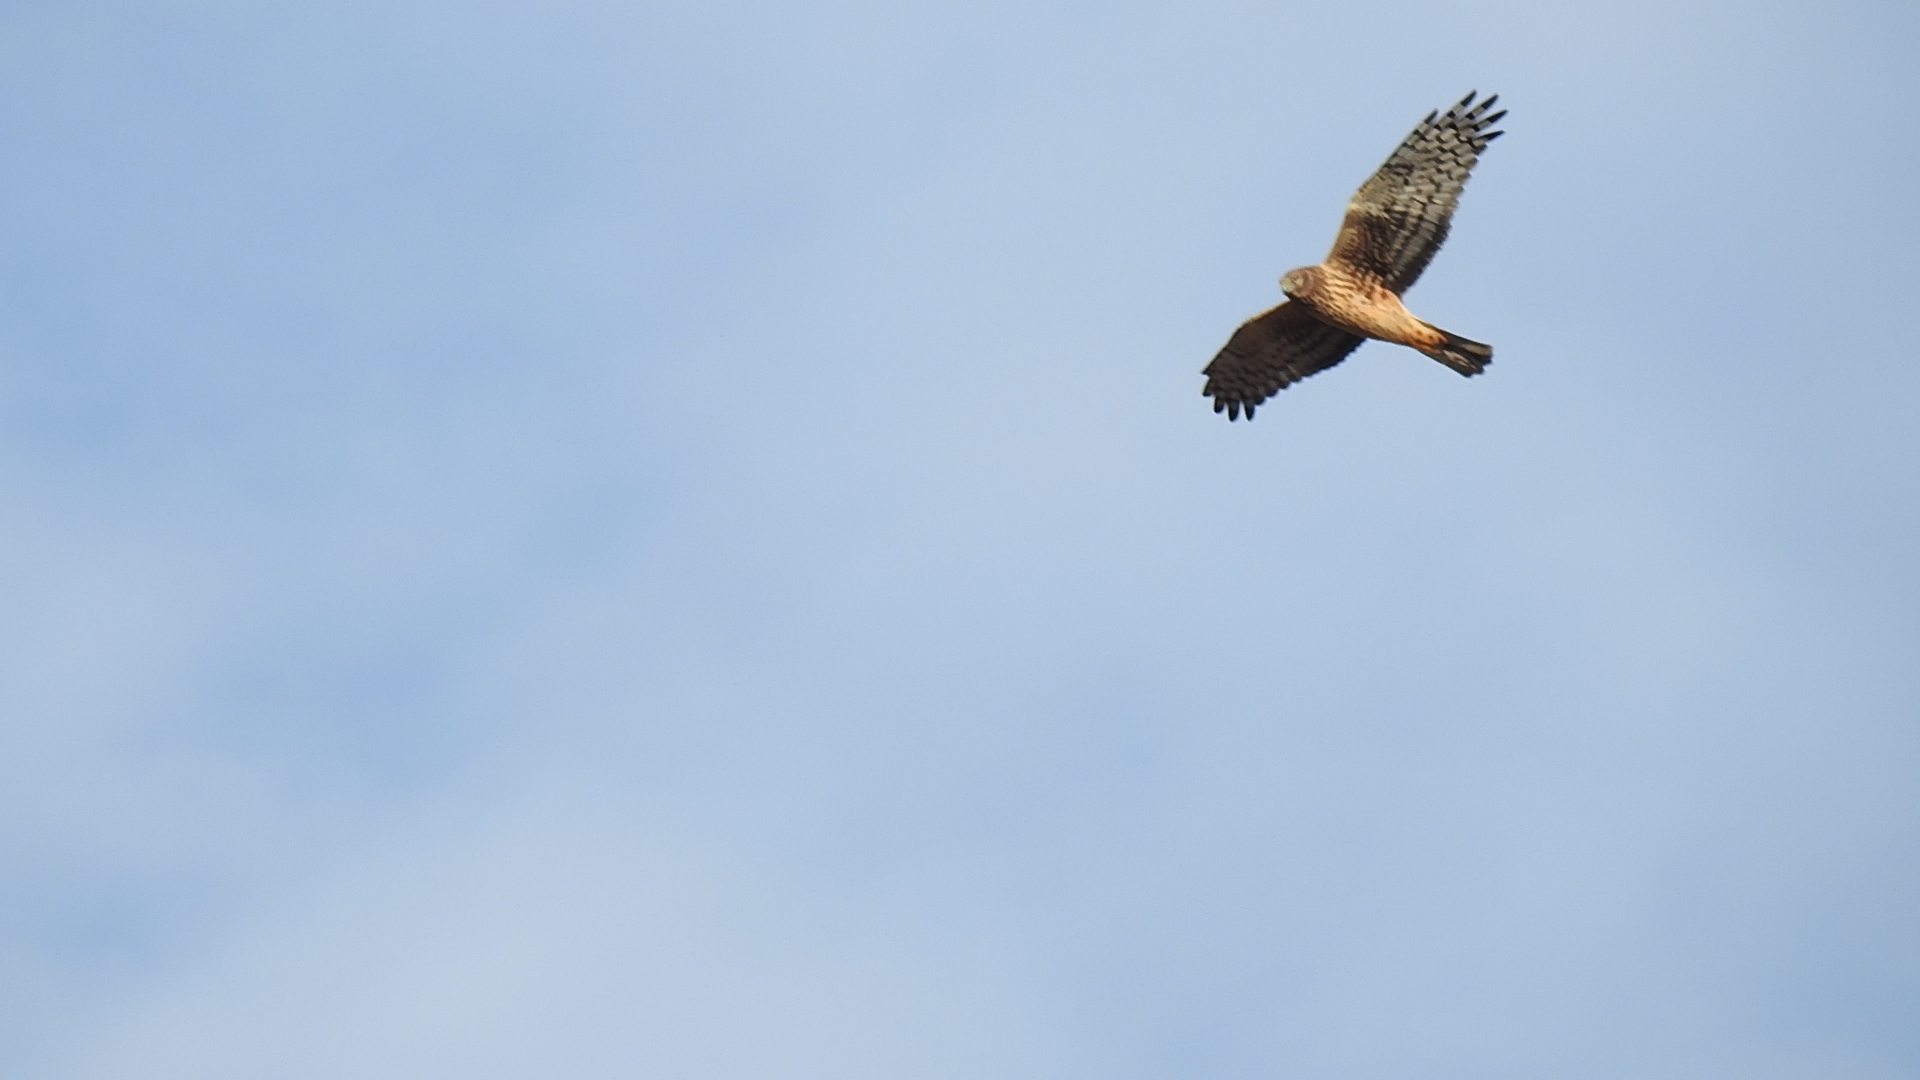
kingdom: Animalia
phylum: Chordata
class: Aves
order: Accipitriformes
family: Accipitridae
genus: Circus
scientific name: Circus cyaneus
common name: Hen harrier
